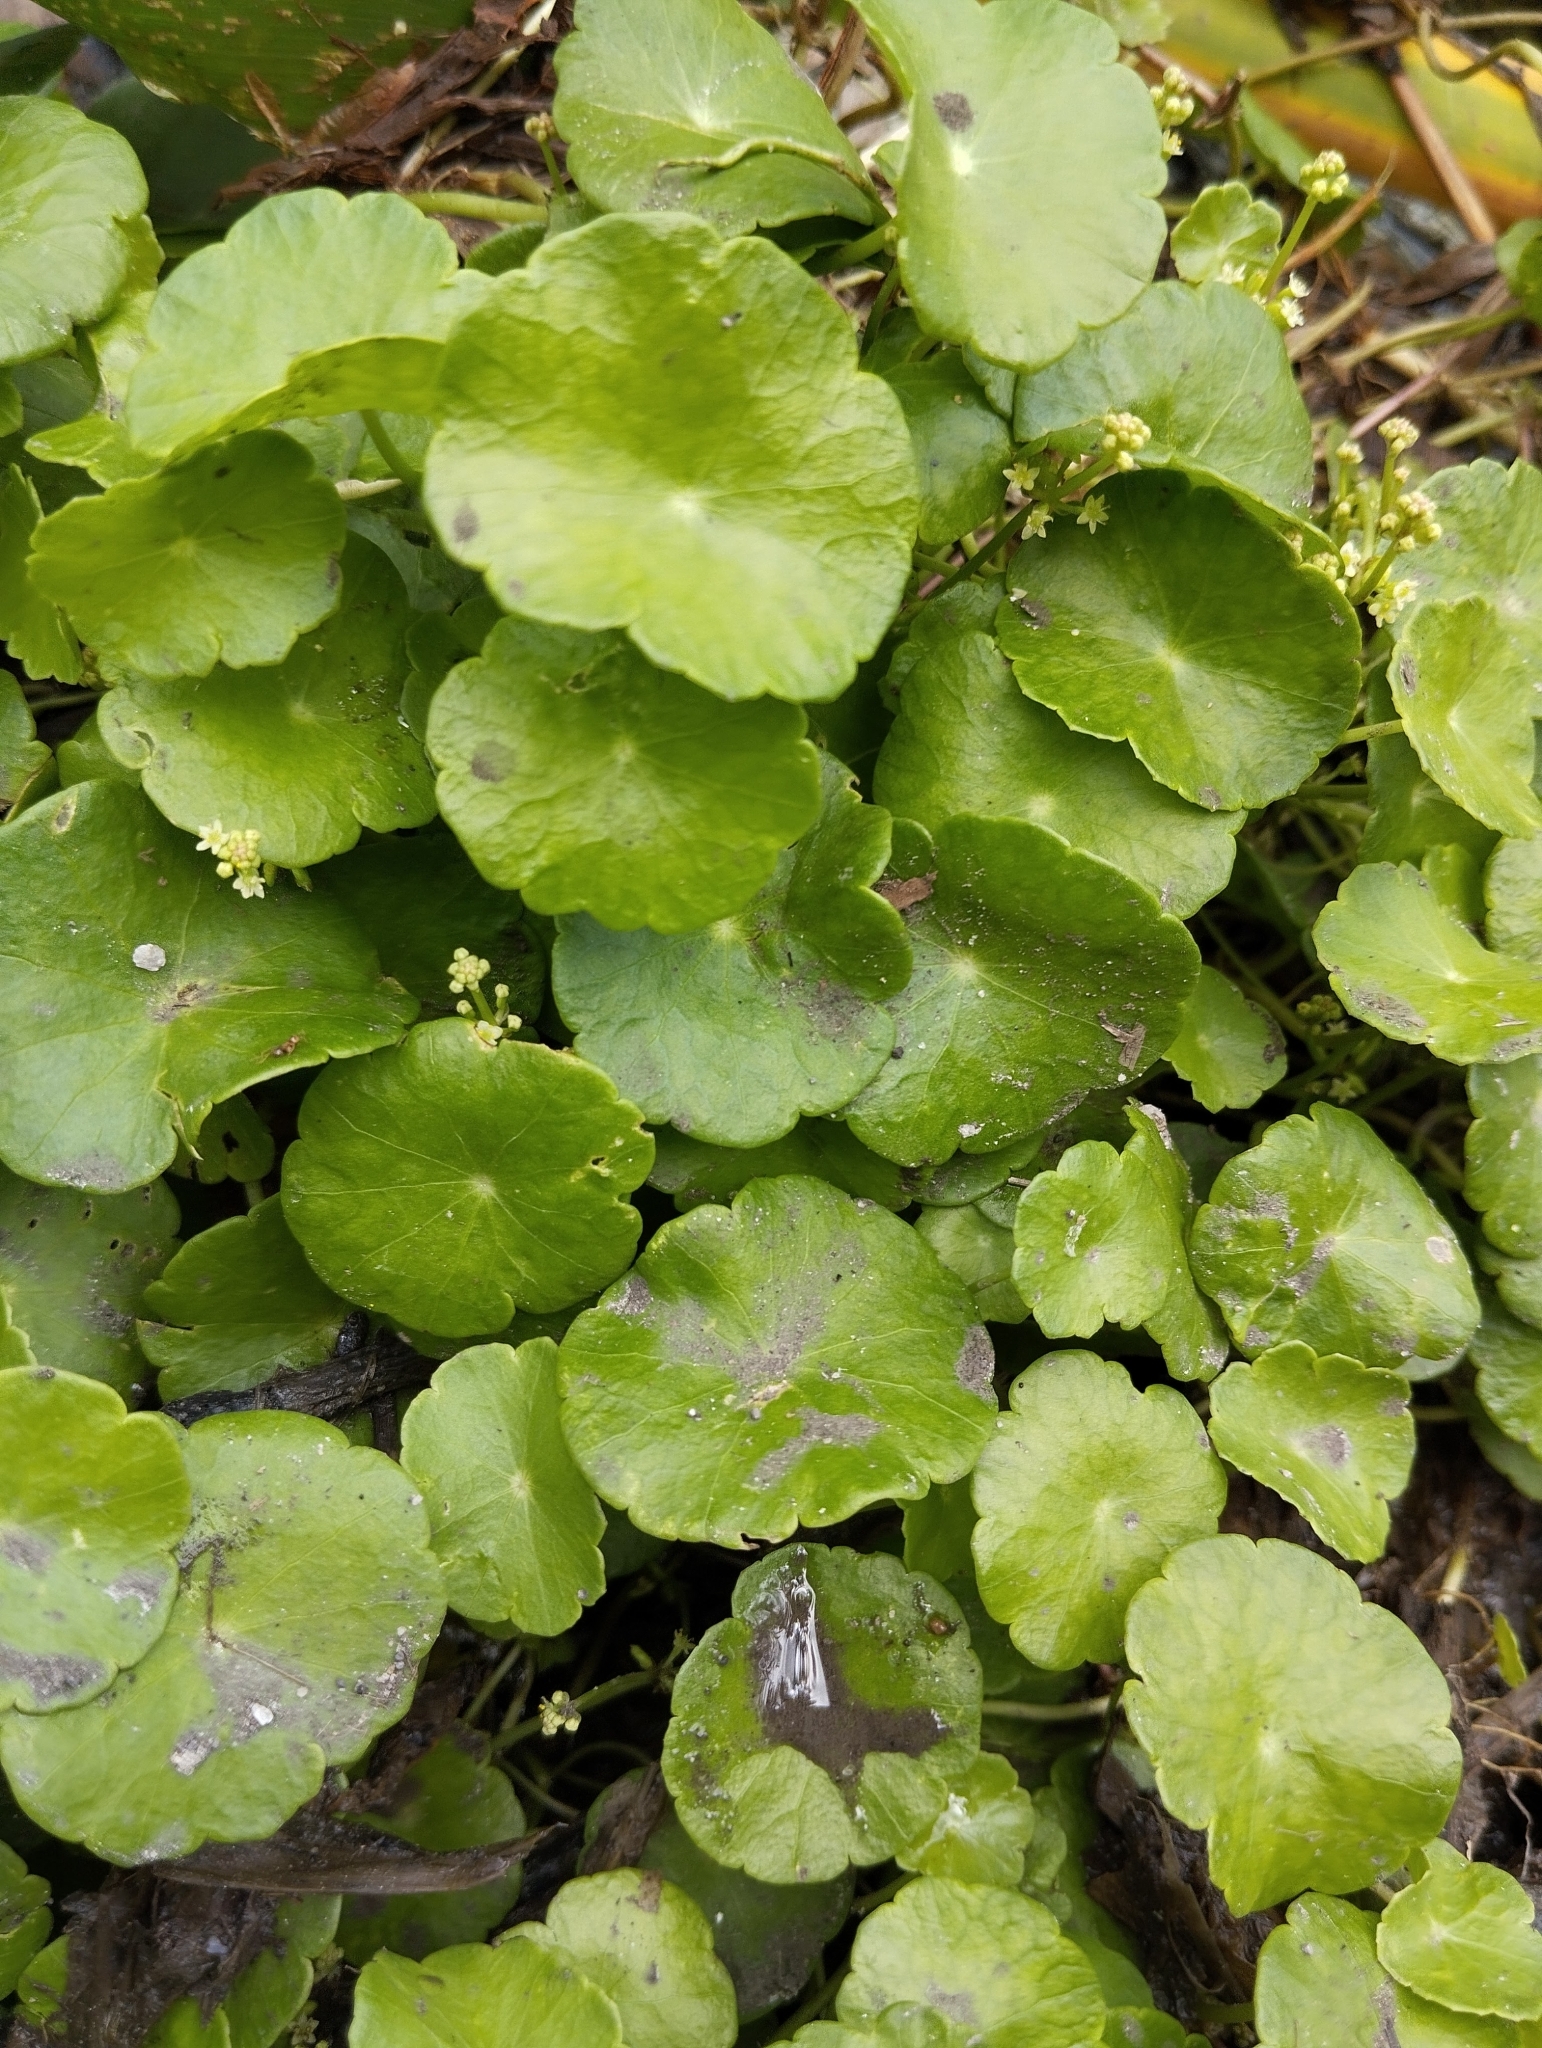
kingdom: Plantae
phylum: Tracheophyta
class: Magnoliopsida
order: Apiales
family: Araliaceae
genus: Hydrocotyle
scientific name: Hydrocotyle verticillata
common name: Whorled marshpennywort
